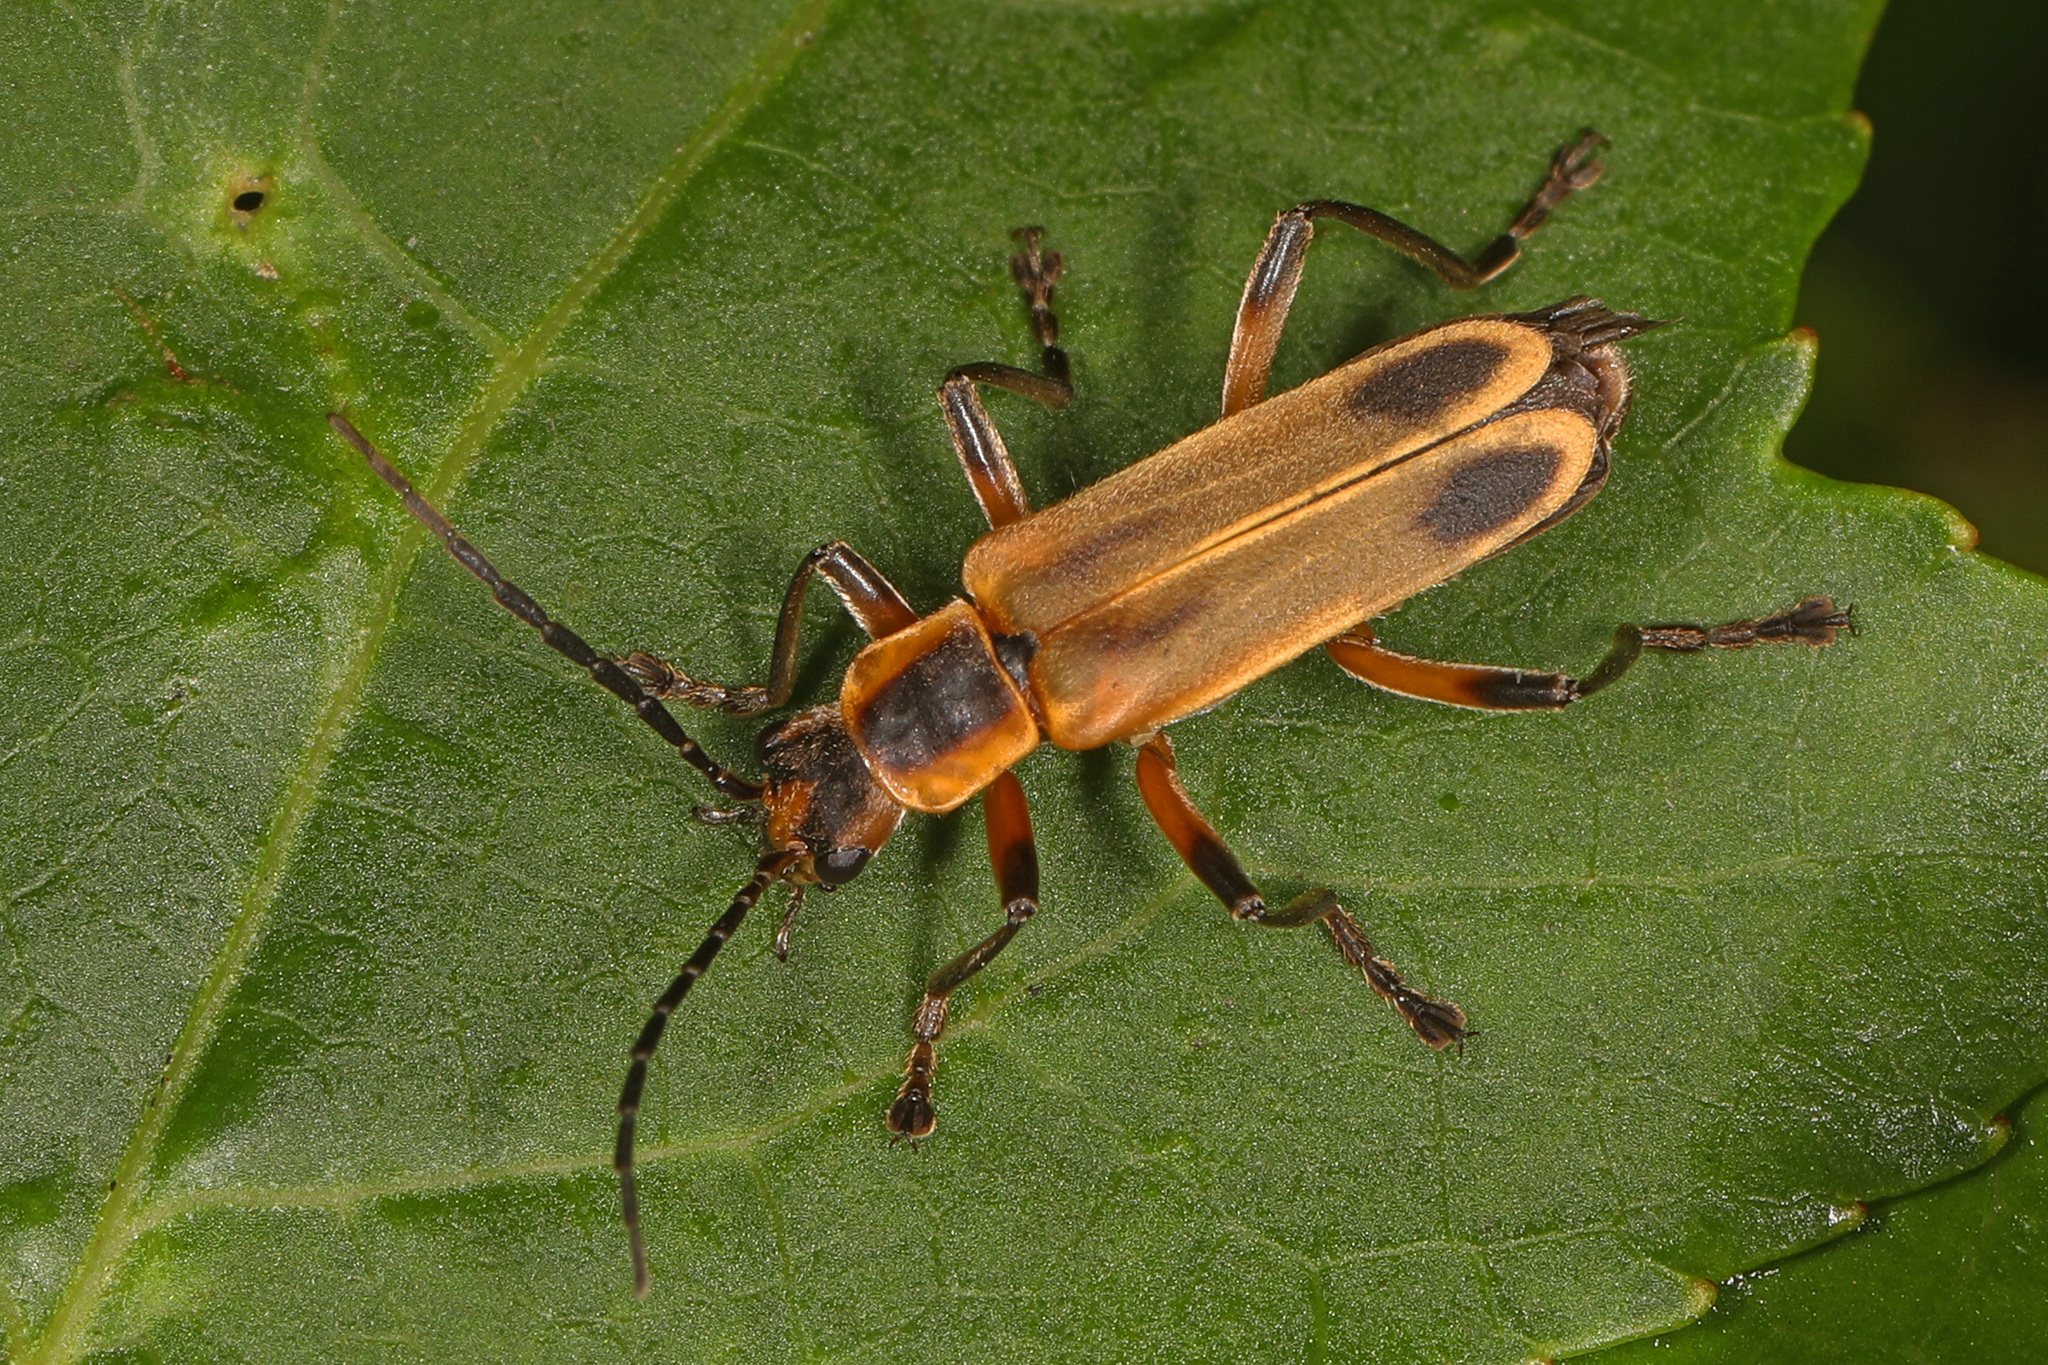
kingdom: Animalia
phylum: Arthropoda
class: Insecta
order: Coleoptera
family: Cantharidae
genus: Chauliognathus
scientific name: Chauliognathus marginatus
